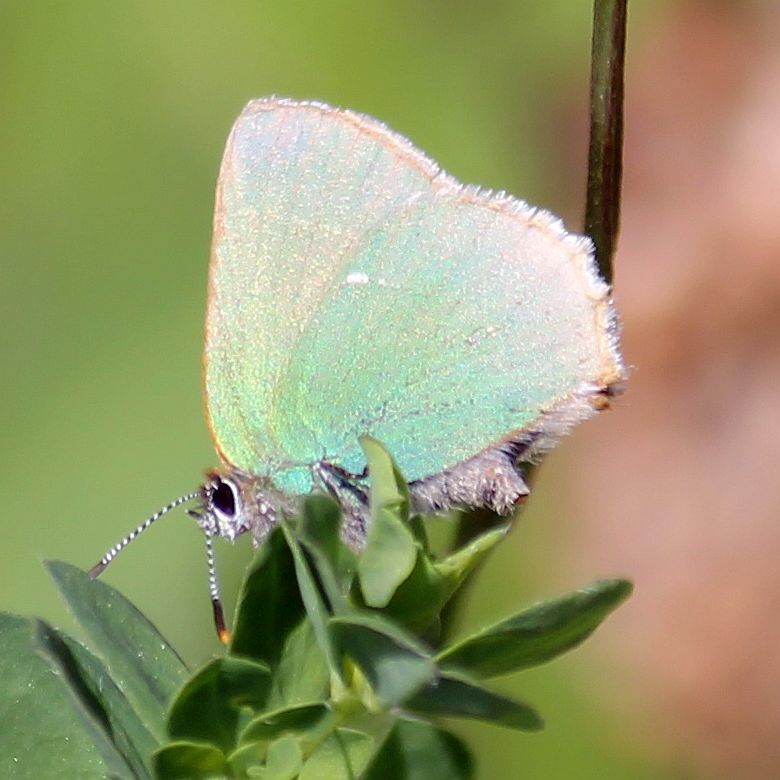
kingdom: Animalia
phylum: Arthropoda
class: Insecta
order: Lepidoptera
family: Lycaenidae
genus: Callophrys
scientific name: Callophrys rubi
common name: Green hairstreak
